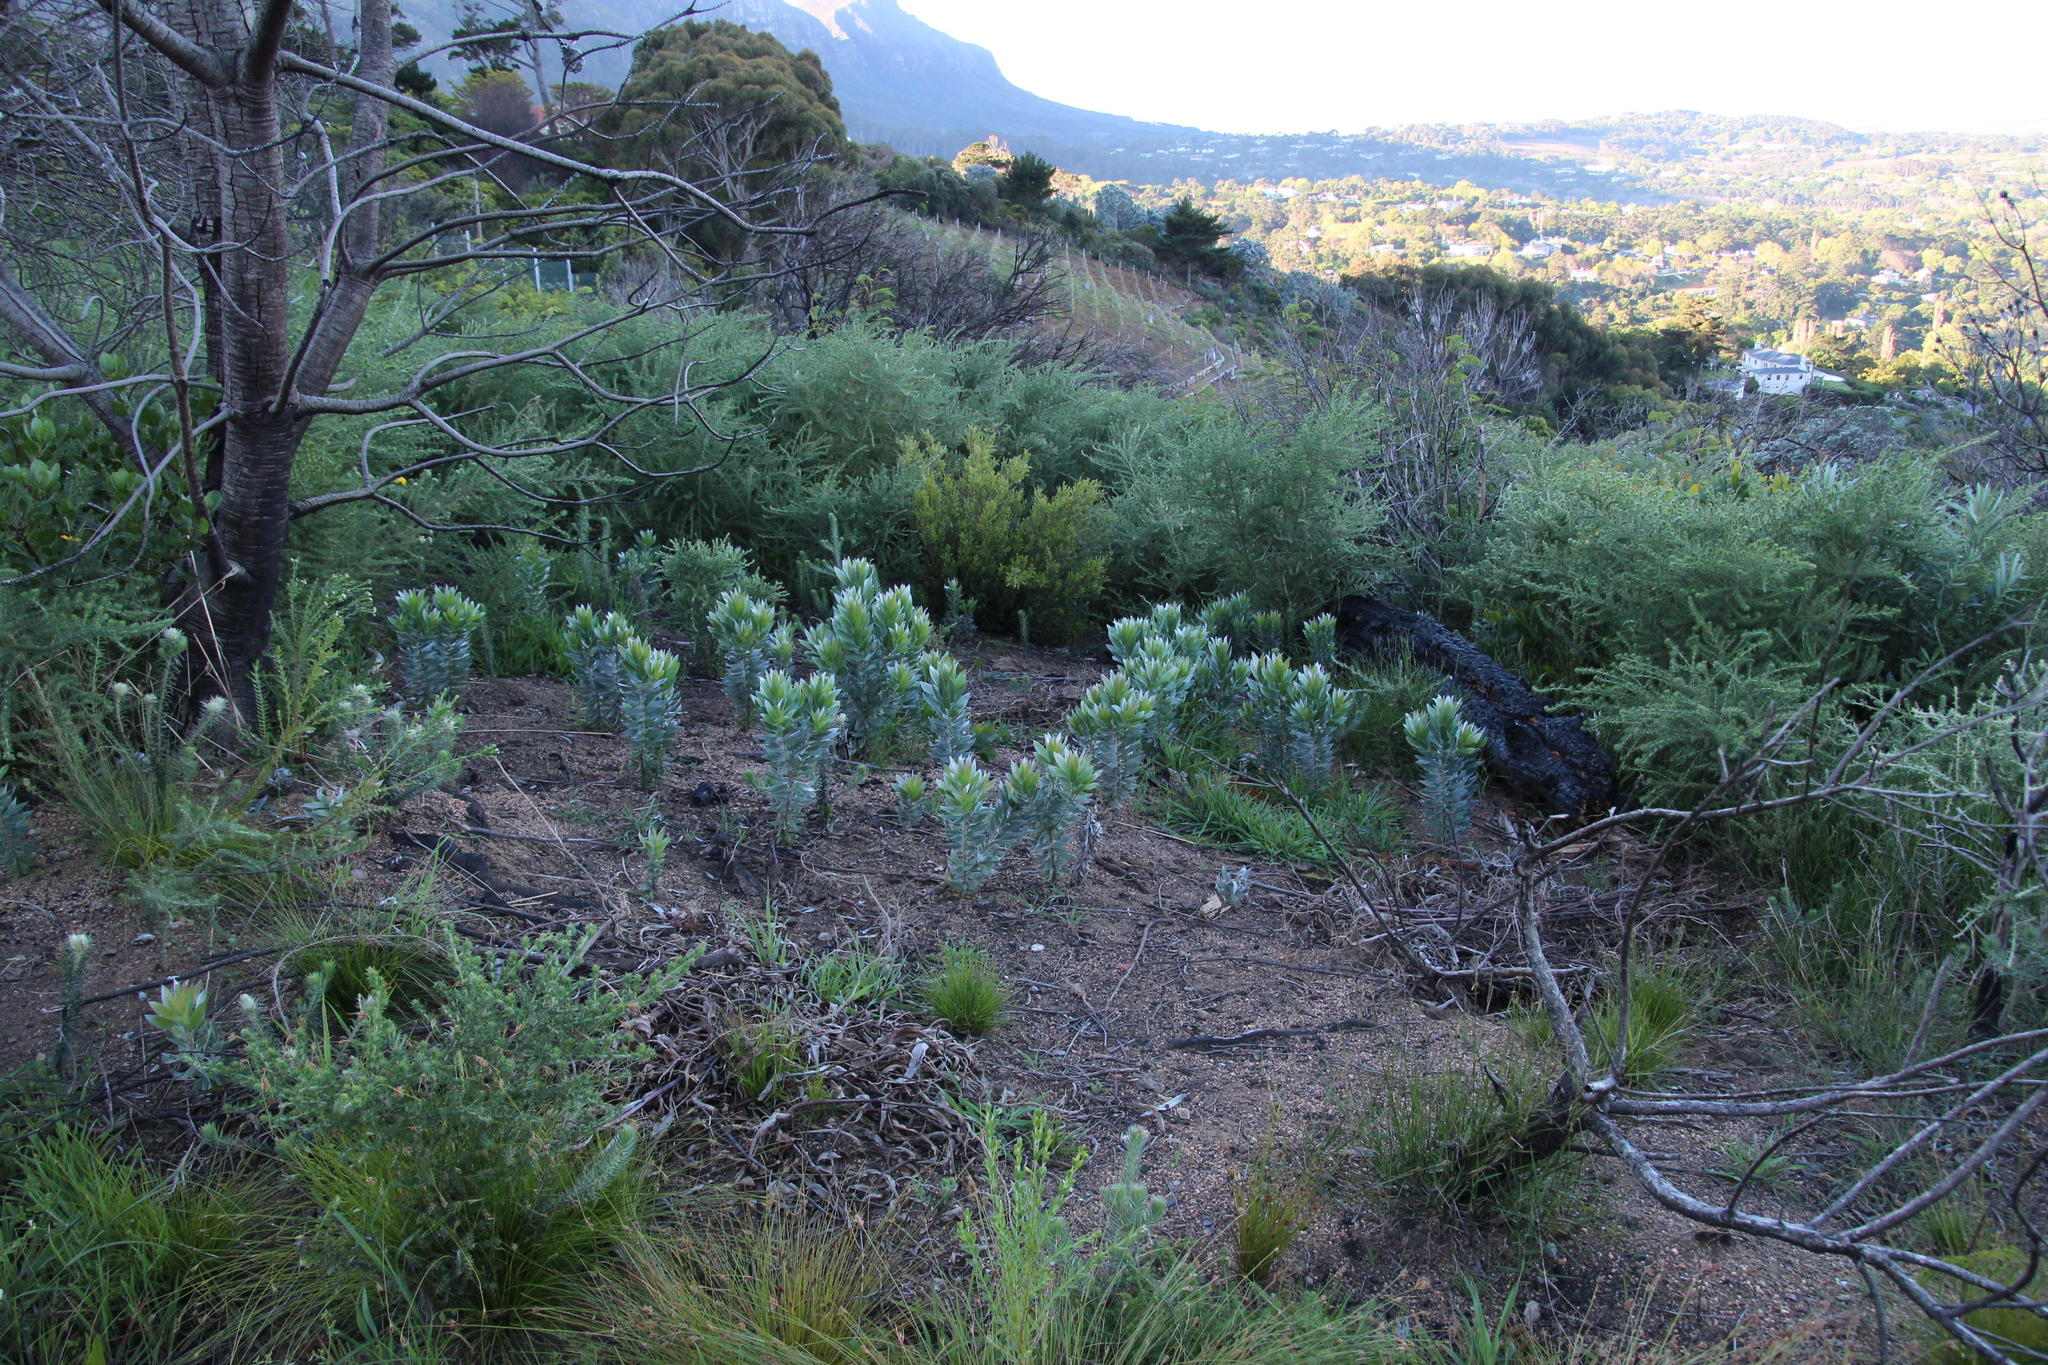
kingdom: Plantae
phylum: Tracheophyta
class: Magnoliopsida
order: Proteales
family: Proteaceae
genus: Leucadendron
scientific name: Leucadendron argenteum
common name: Cape silver tree
